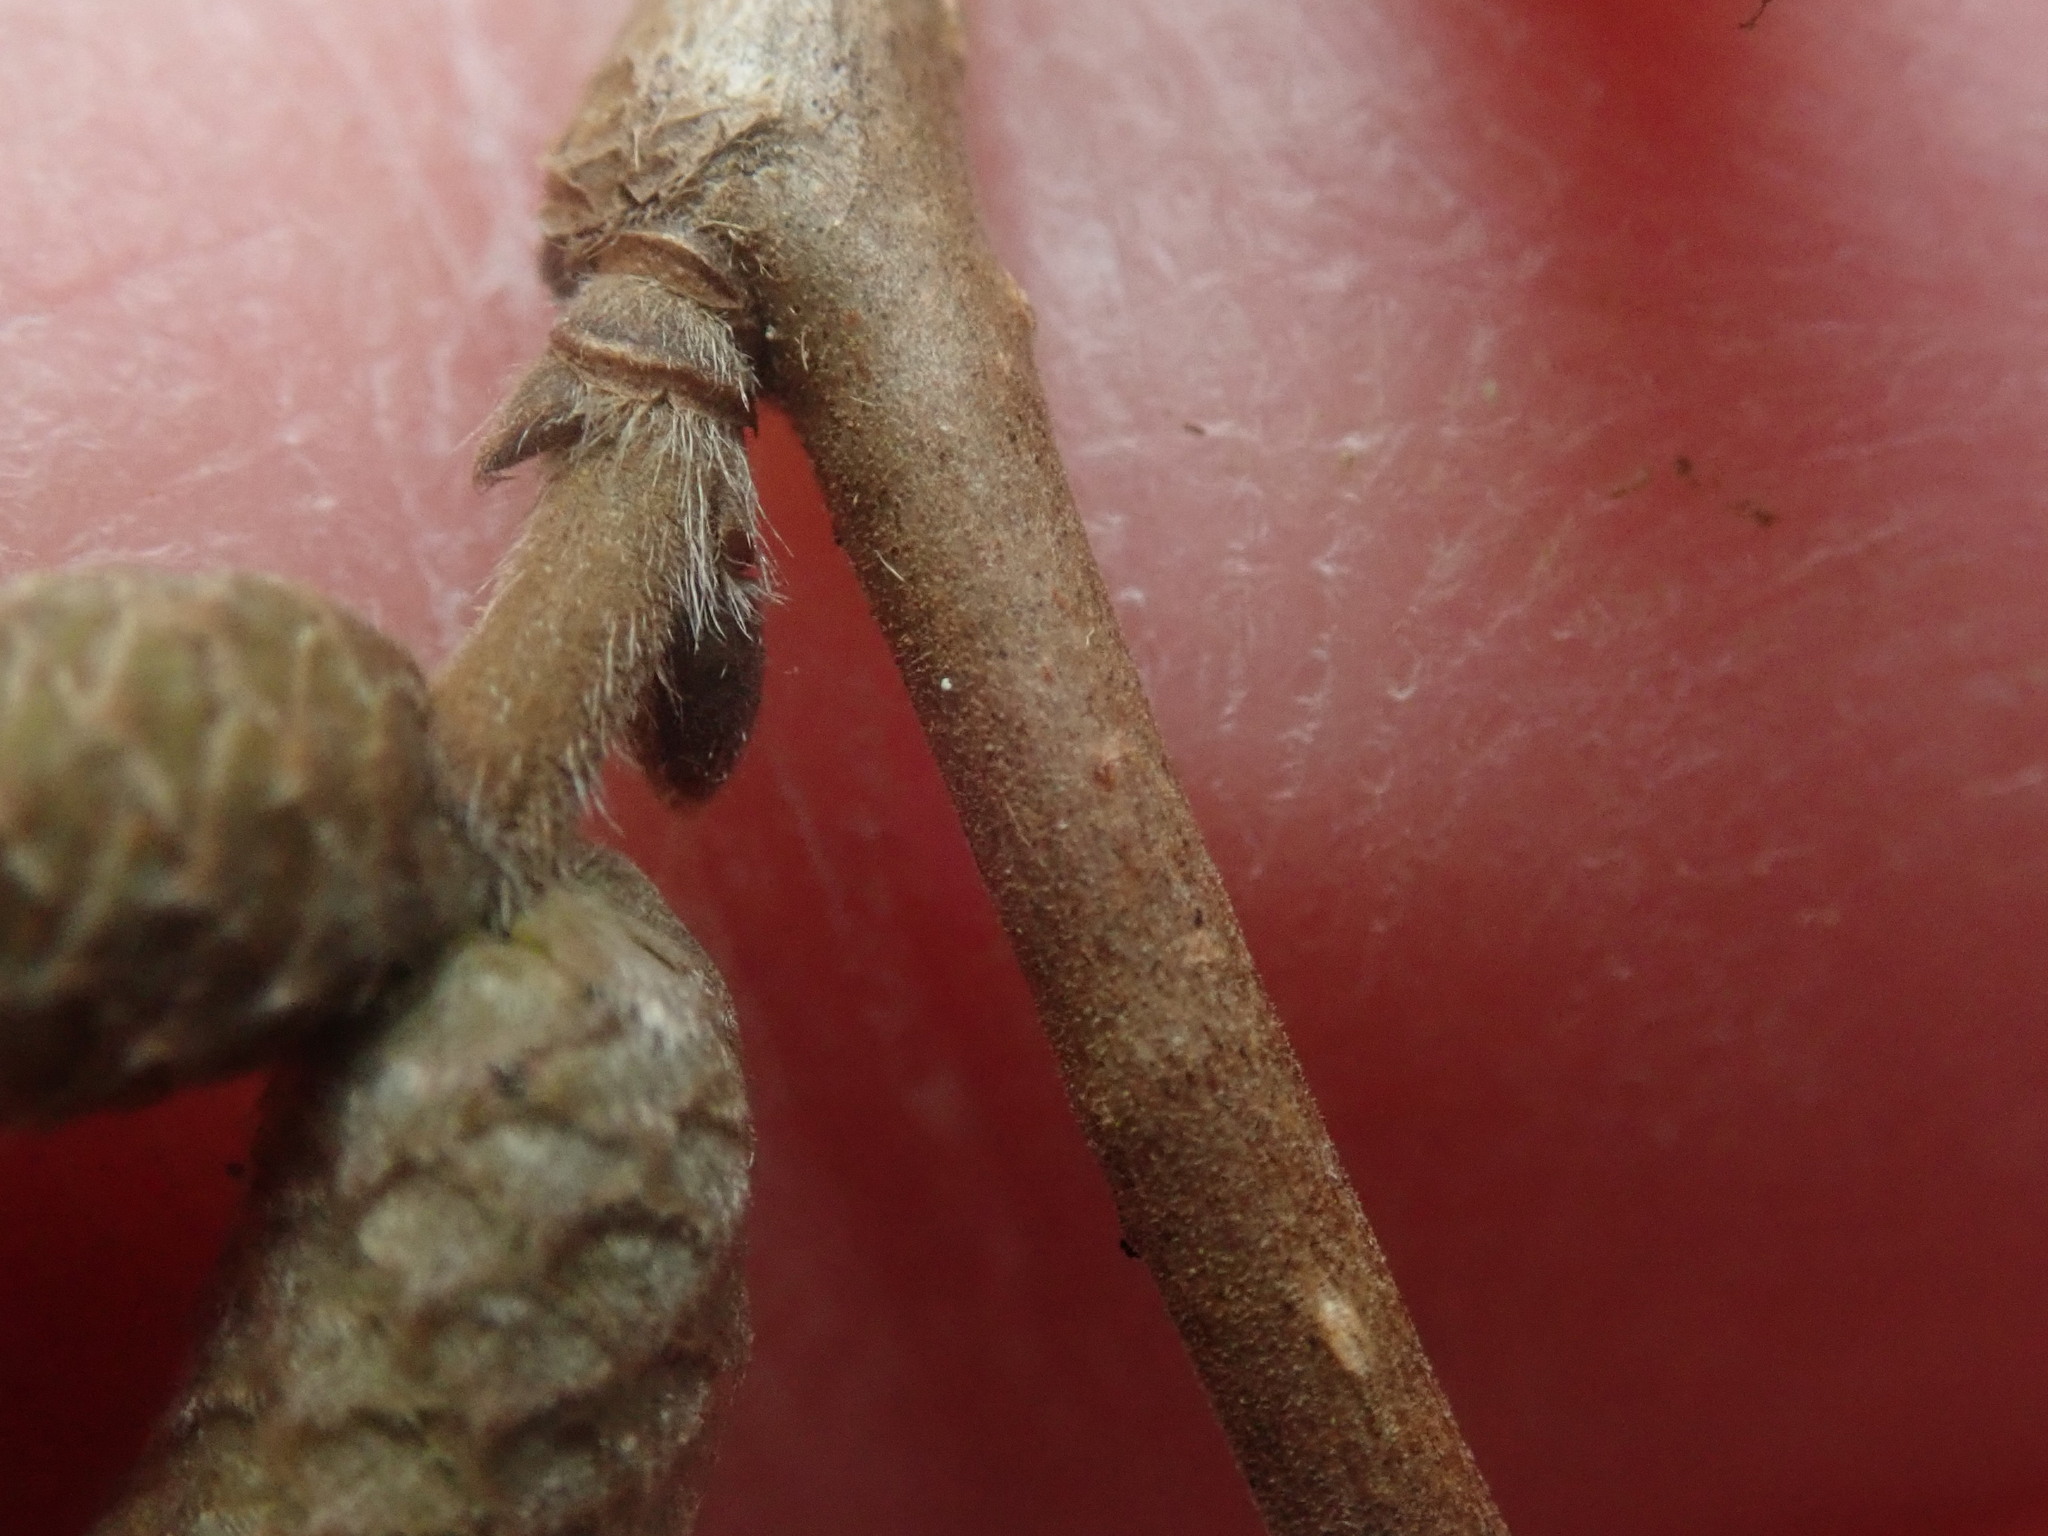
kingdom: Plantae
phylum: Tracheophyta
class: Magnoliopsida
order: Fagales
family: Betulaceae
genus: Corylus
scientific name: Corylus cornuta
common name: Beaked hazel
